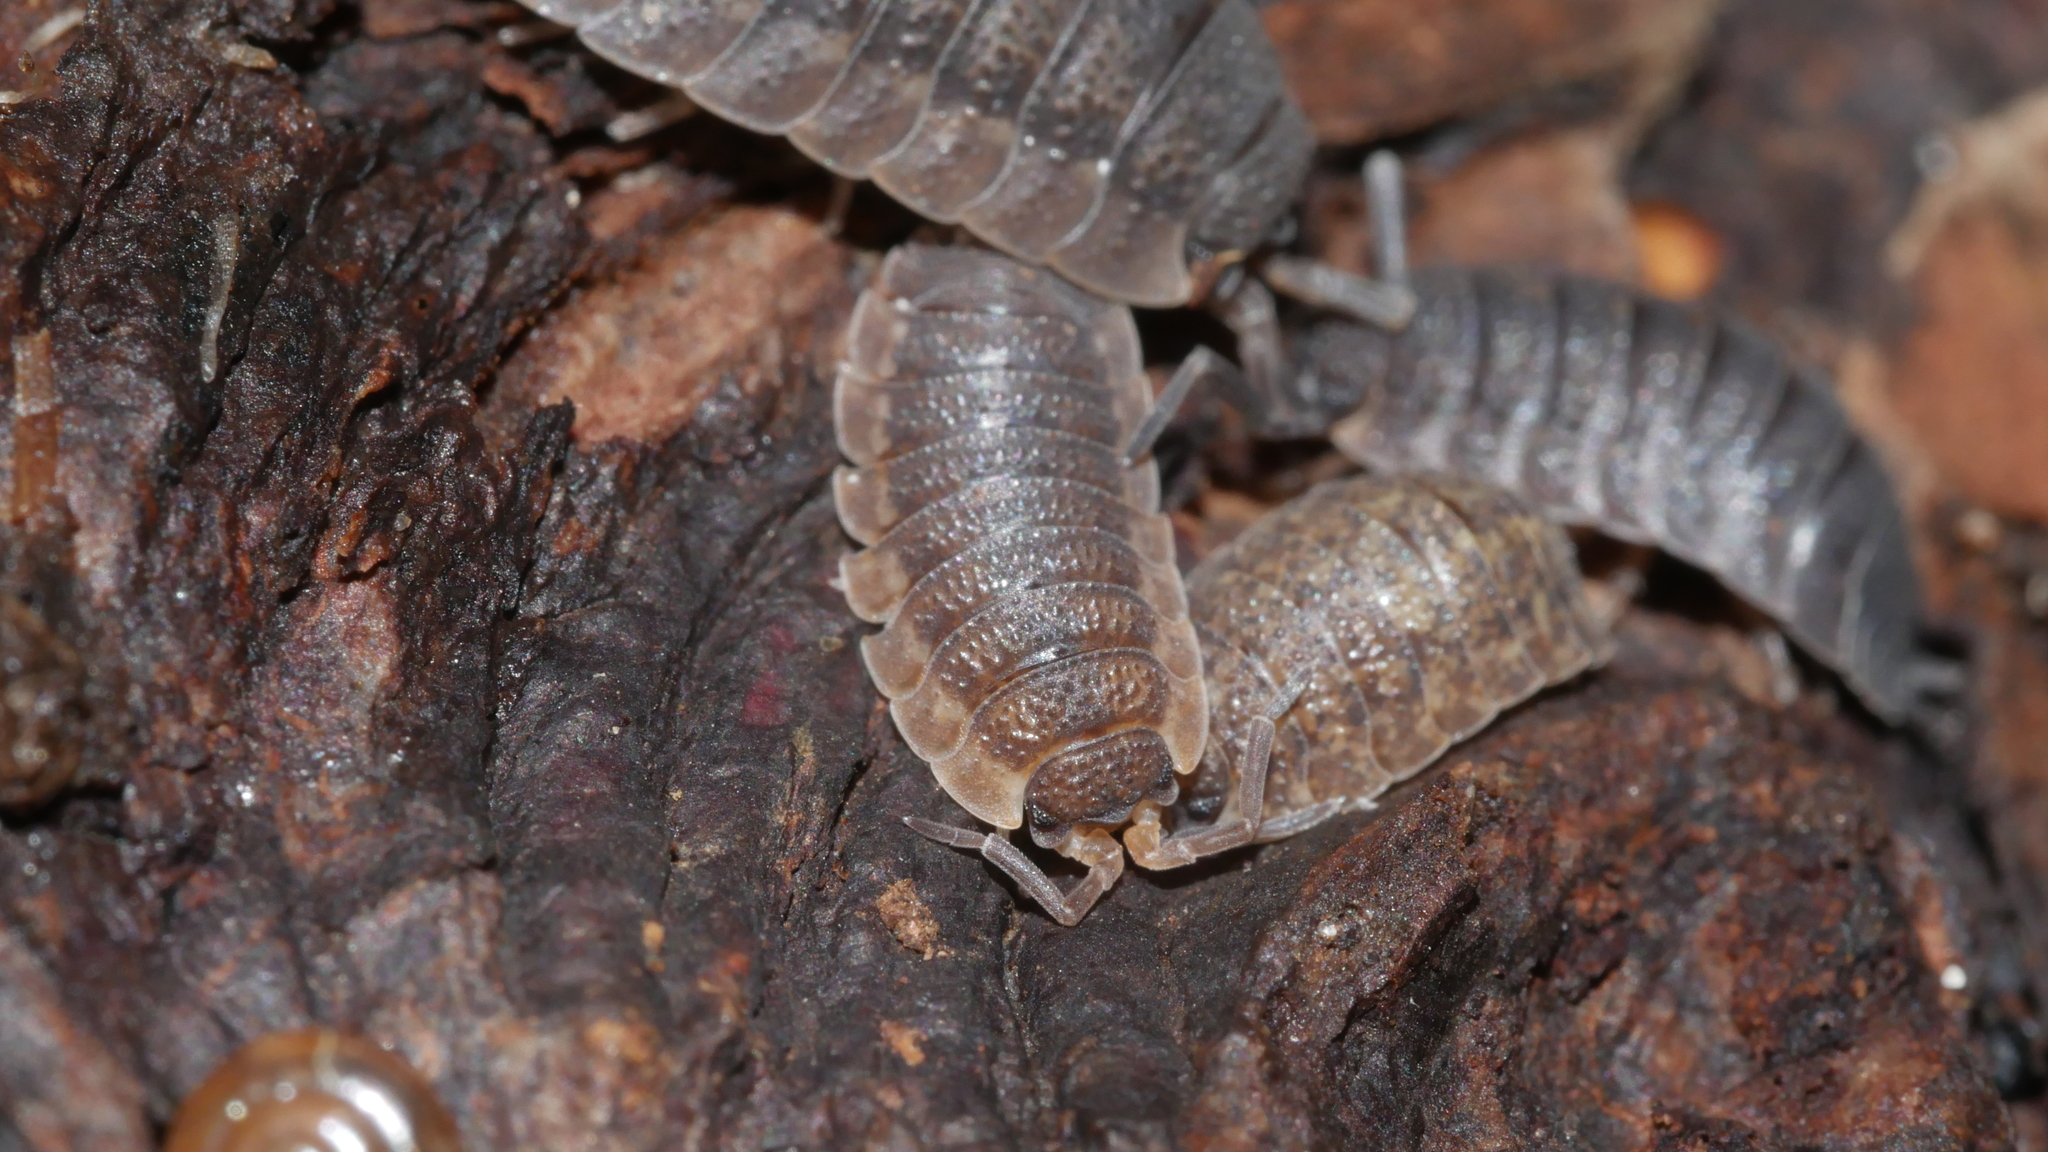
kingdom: Animalia
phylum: Arthropoda
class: Malacostraca
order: Isopoda
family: Porcellionidae
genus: Porcellio
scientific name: Porcellio scaber
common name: Common rough woodlouse
